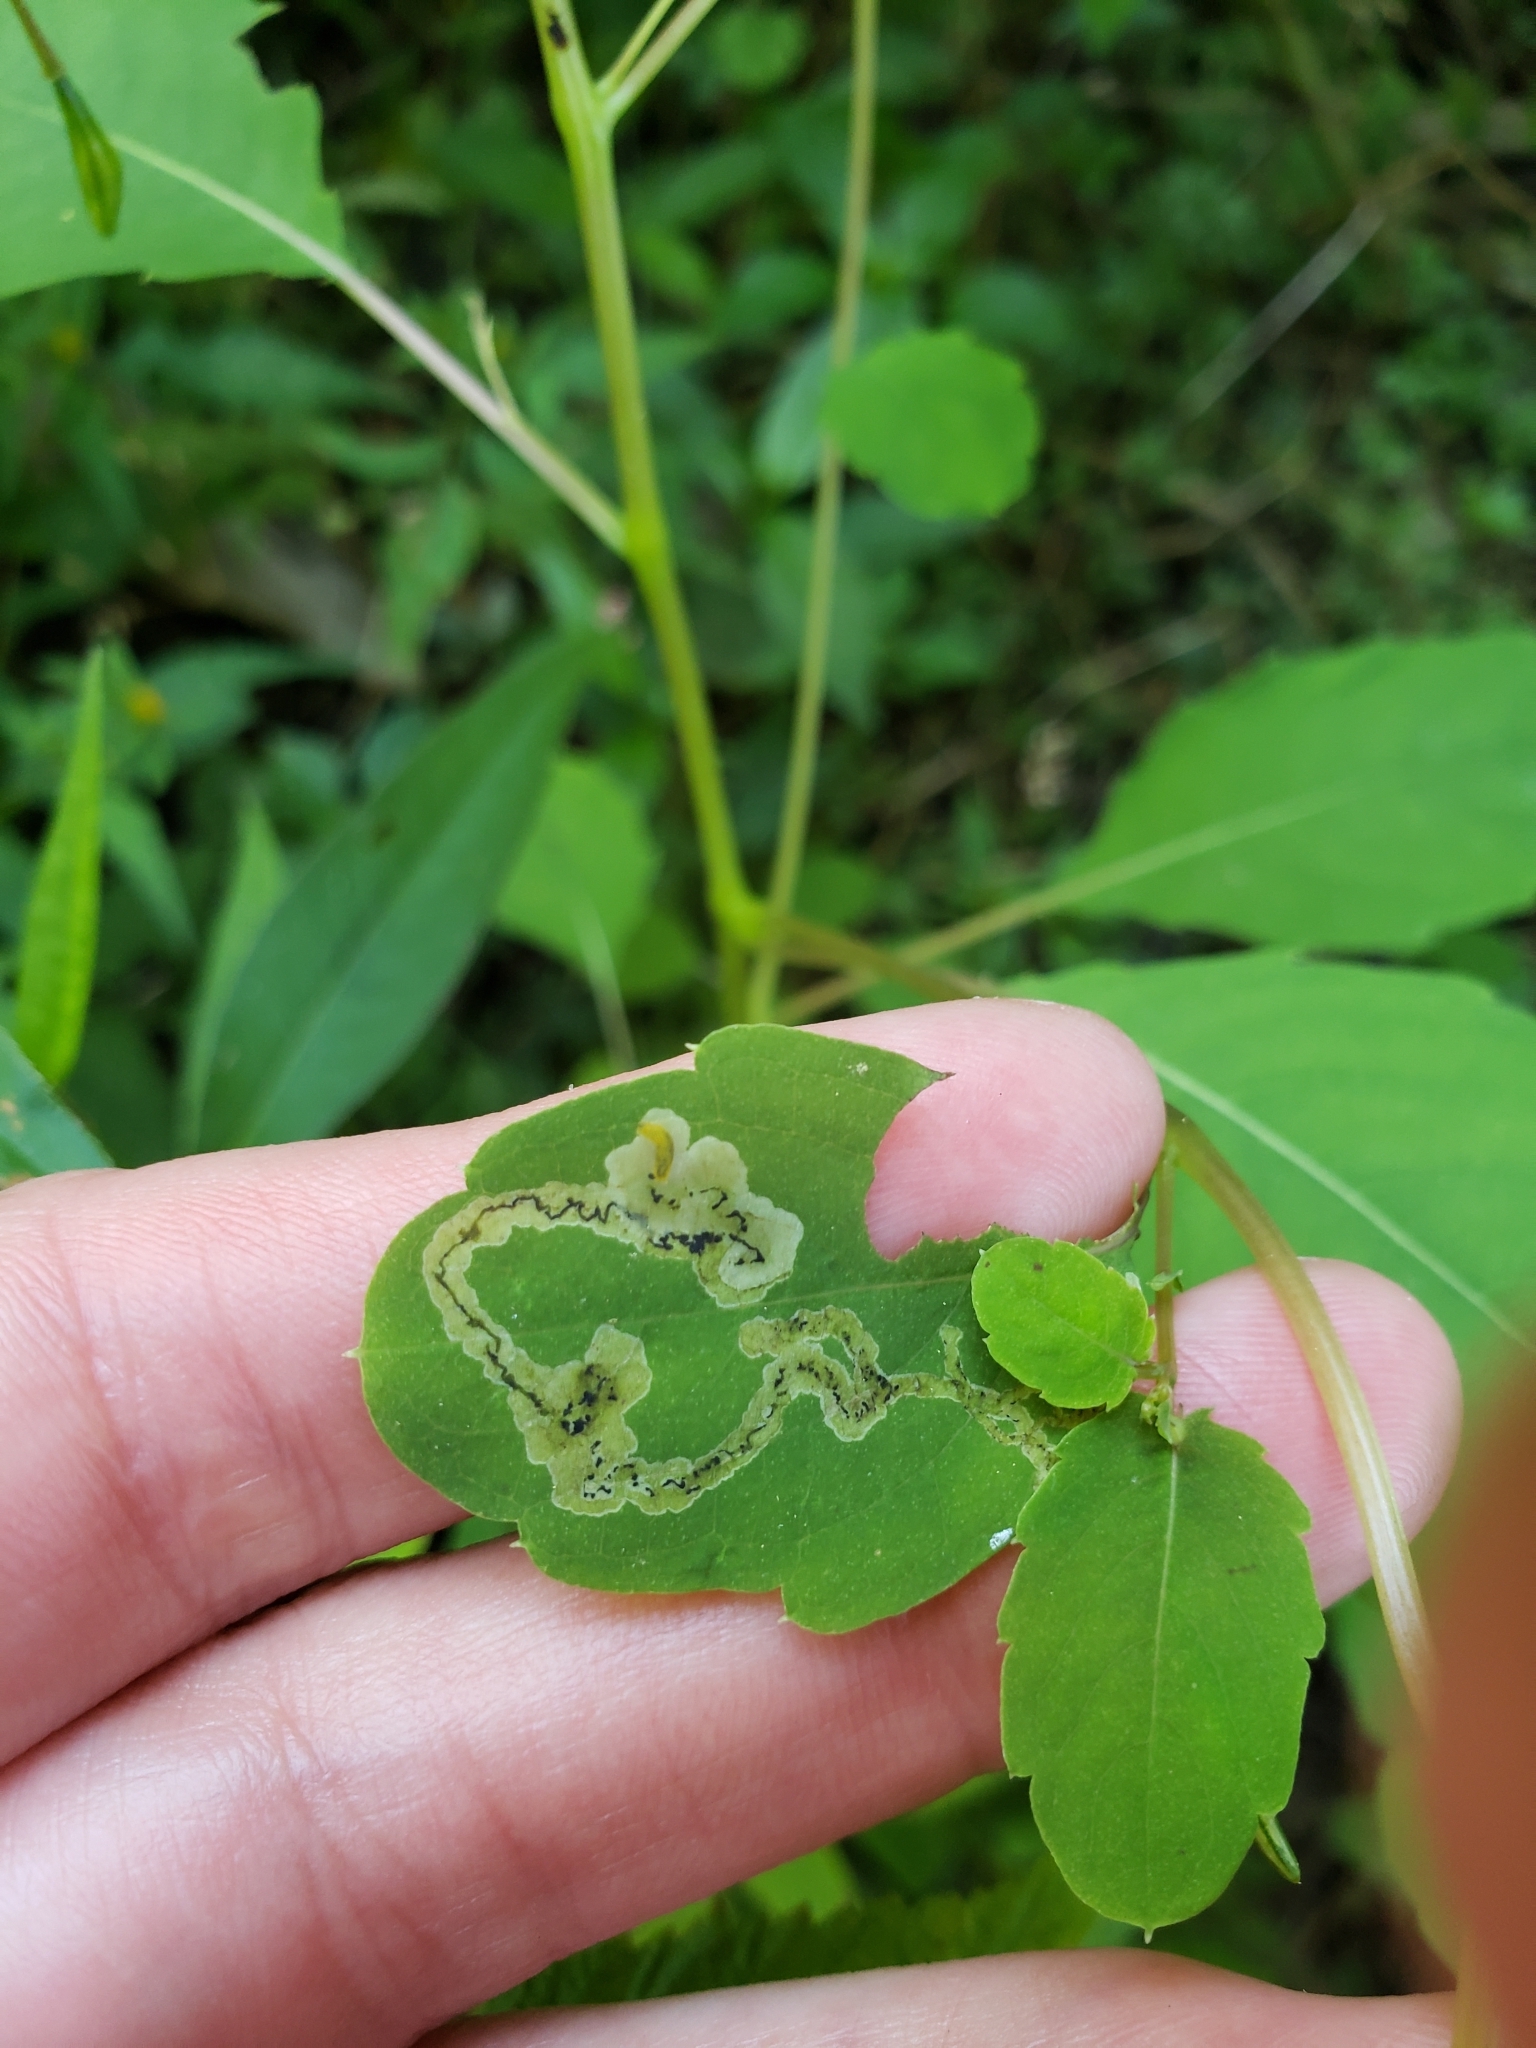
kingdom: Animalia
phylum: Arthropoda
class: Insecta
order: Diptera
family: Agromyzidae
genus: Phytoliriomyza
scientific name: Phytoliriomyza melampyga
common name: Jewelweed leaf-miner fly
